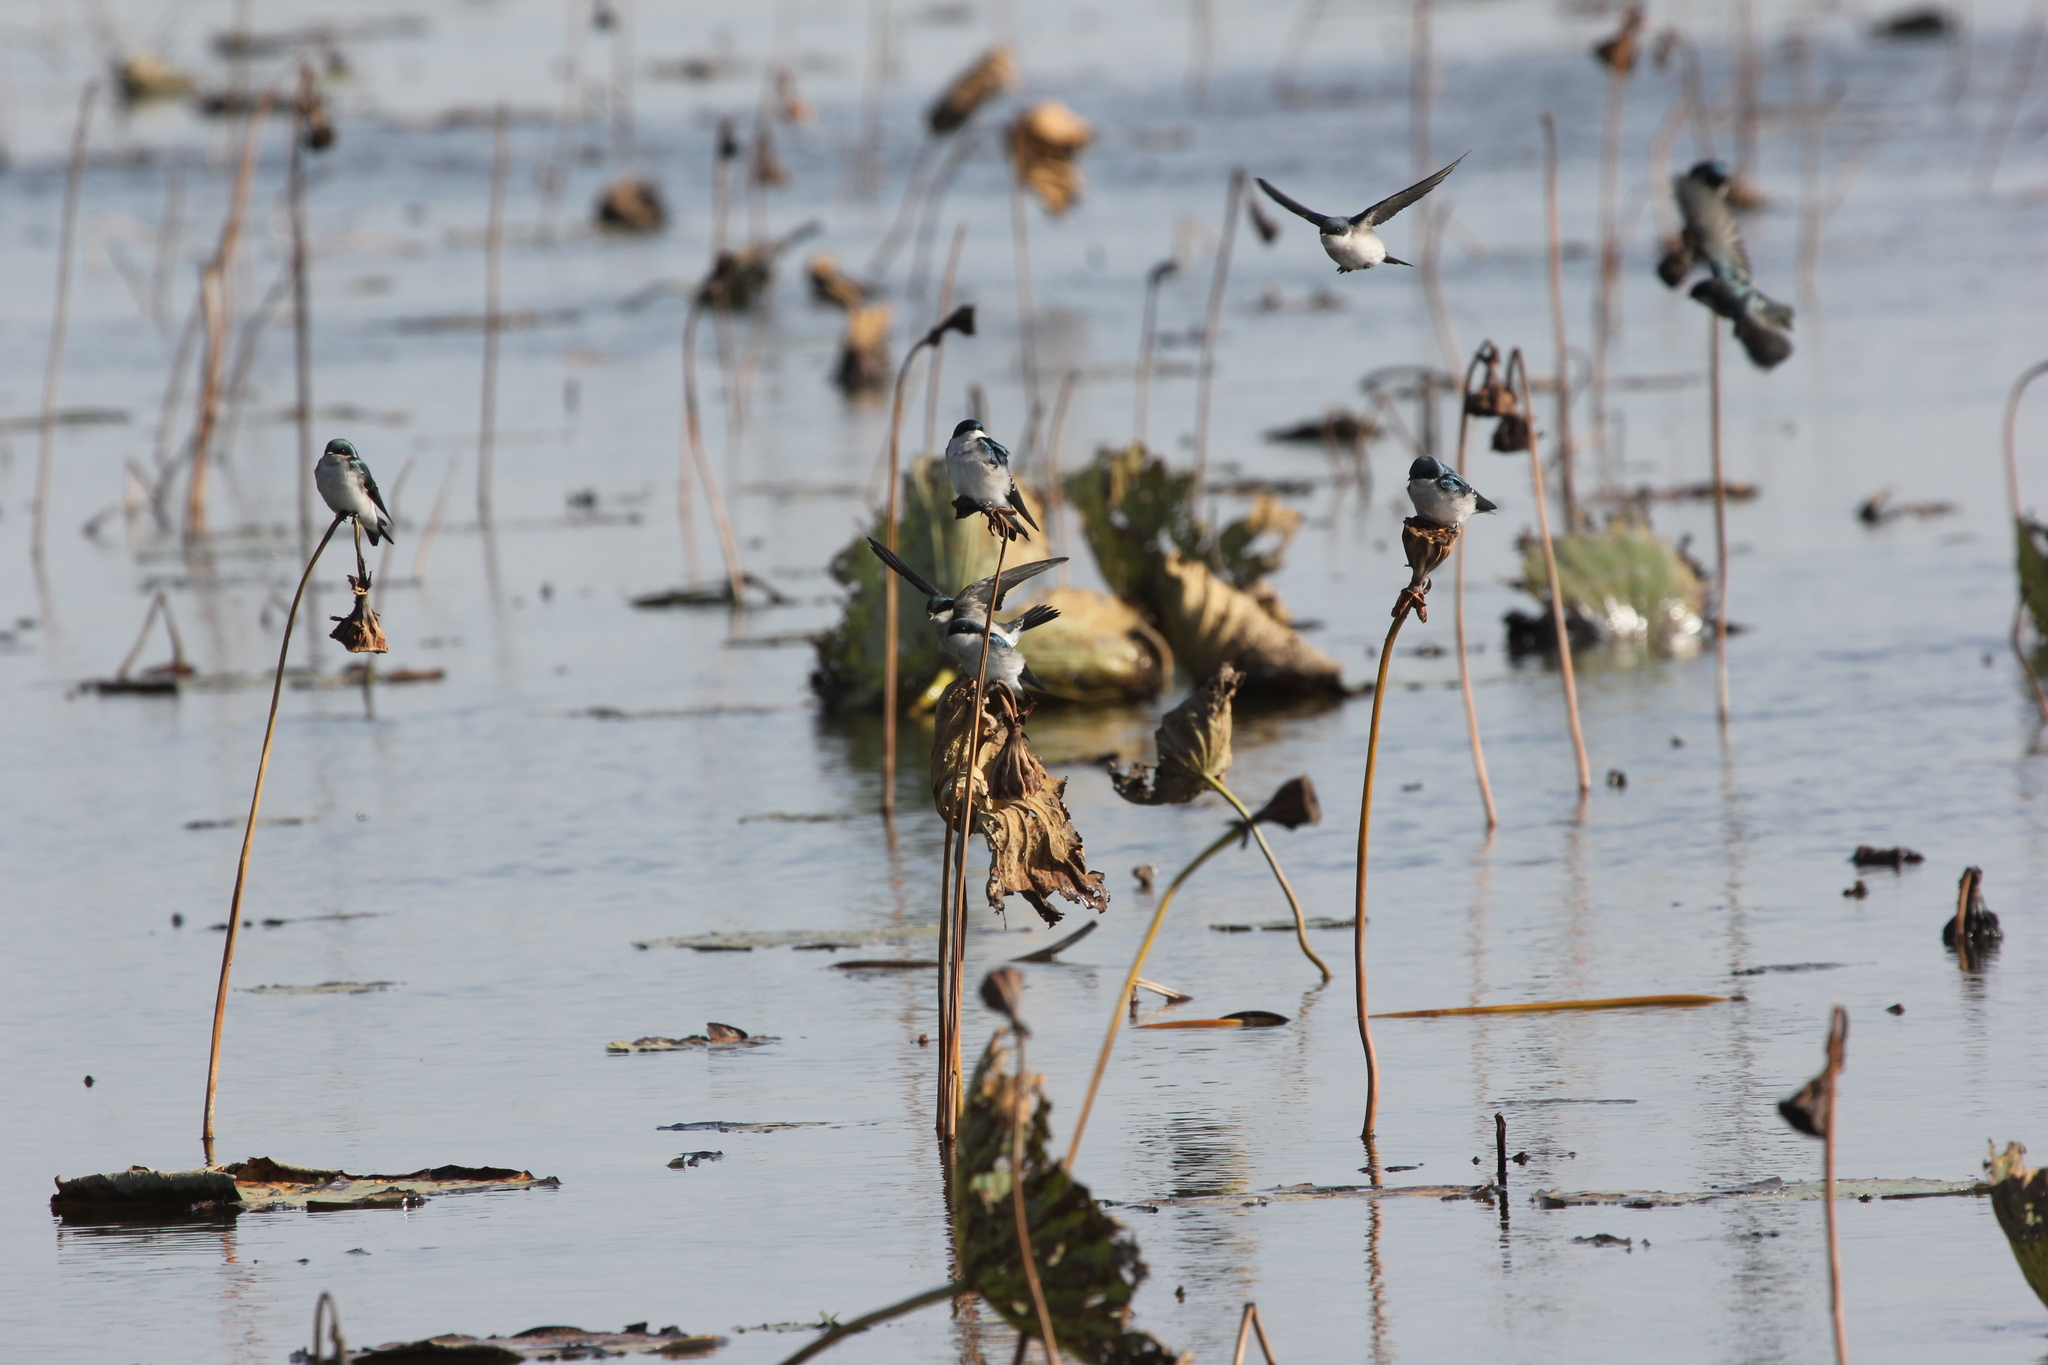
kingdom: Plantae
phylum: Tracheophyta
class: Magnoliopsida
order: Proteales
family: Nelumbonaceae
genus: Nelumbo
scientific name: Nelumbo lutea
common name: American lotus
